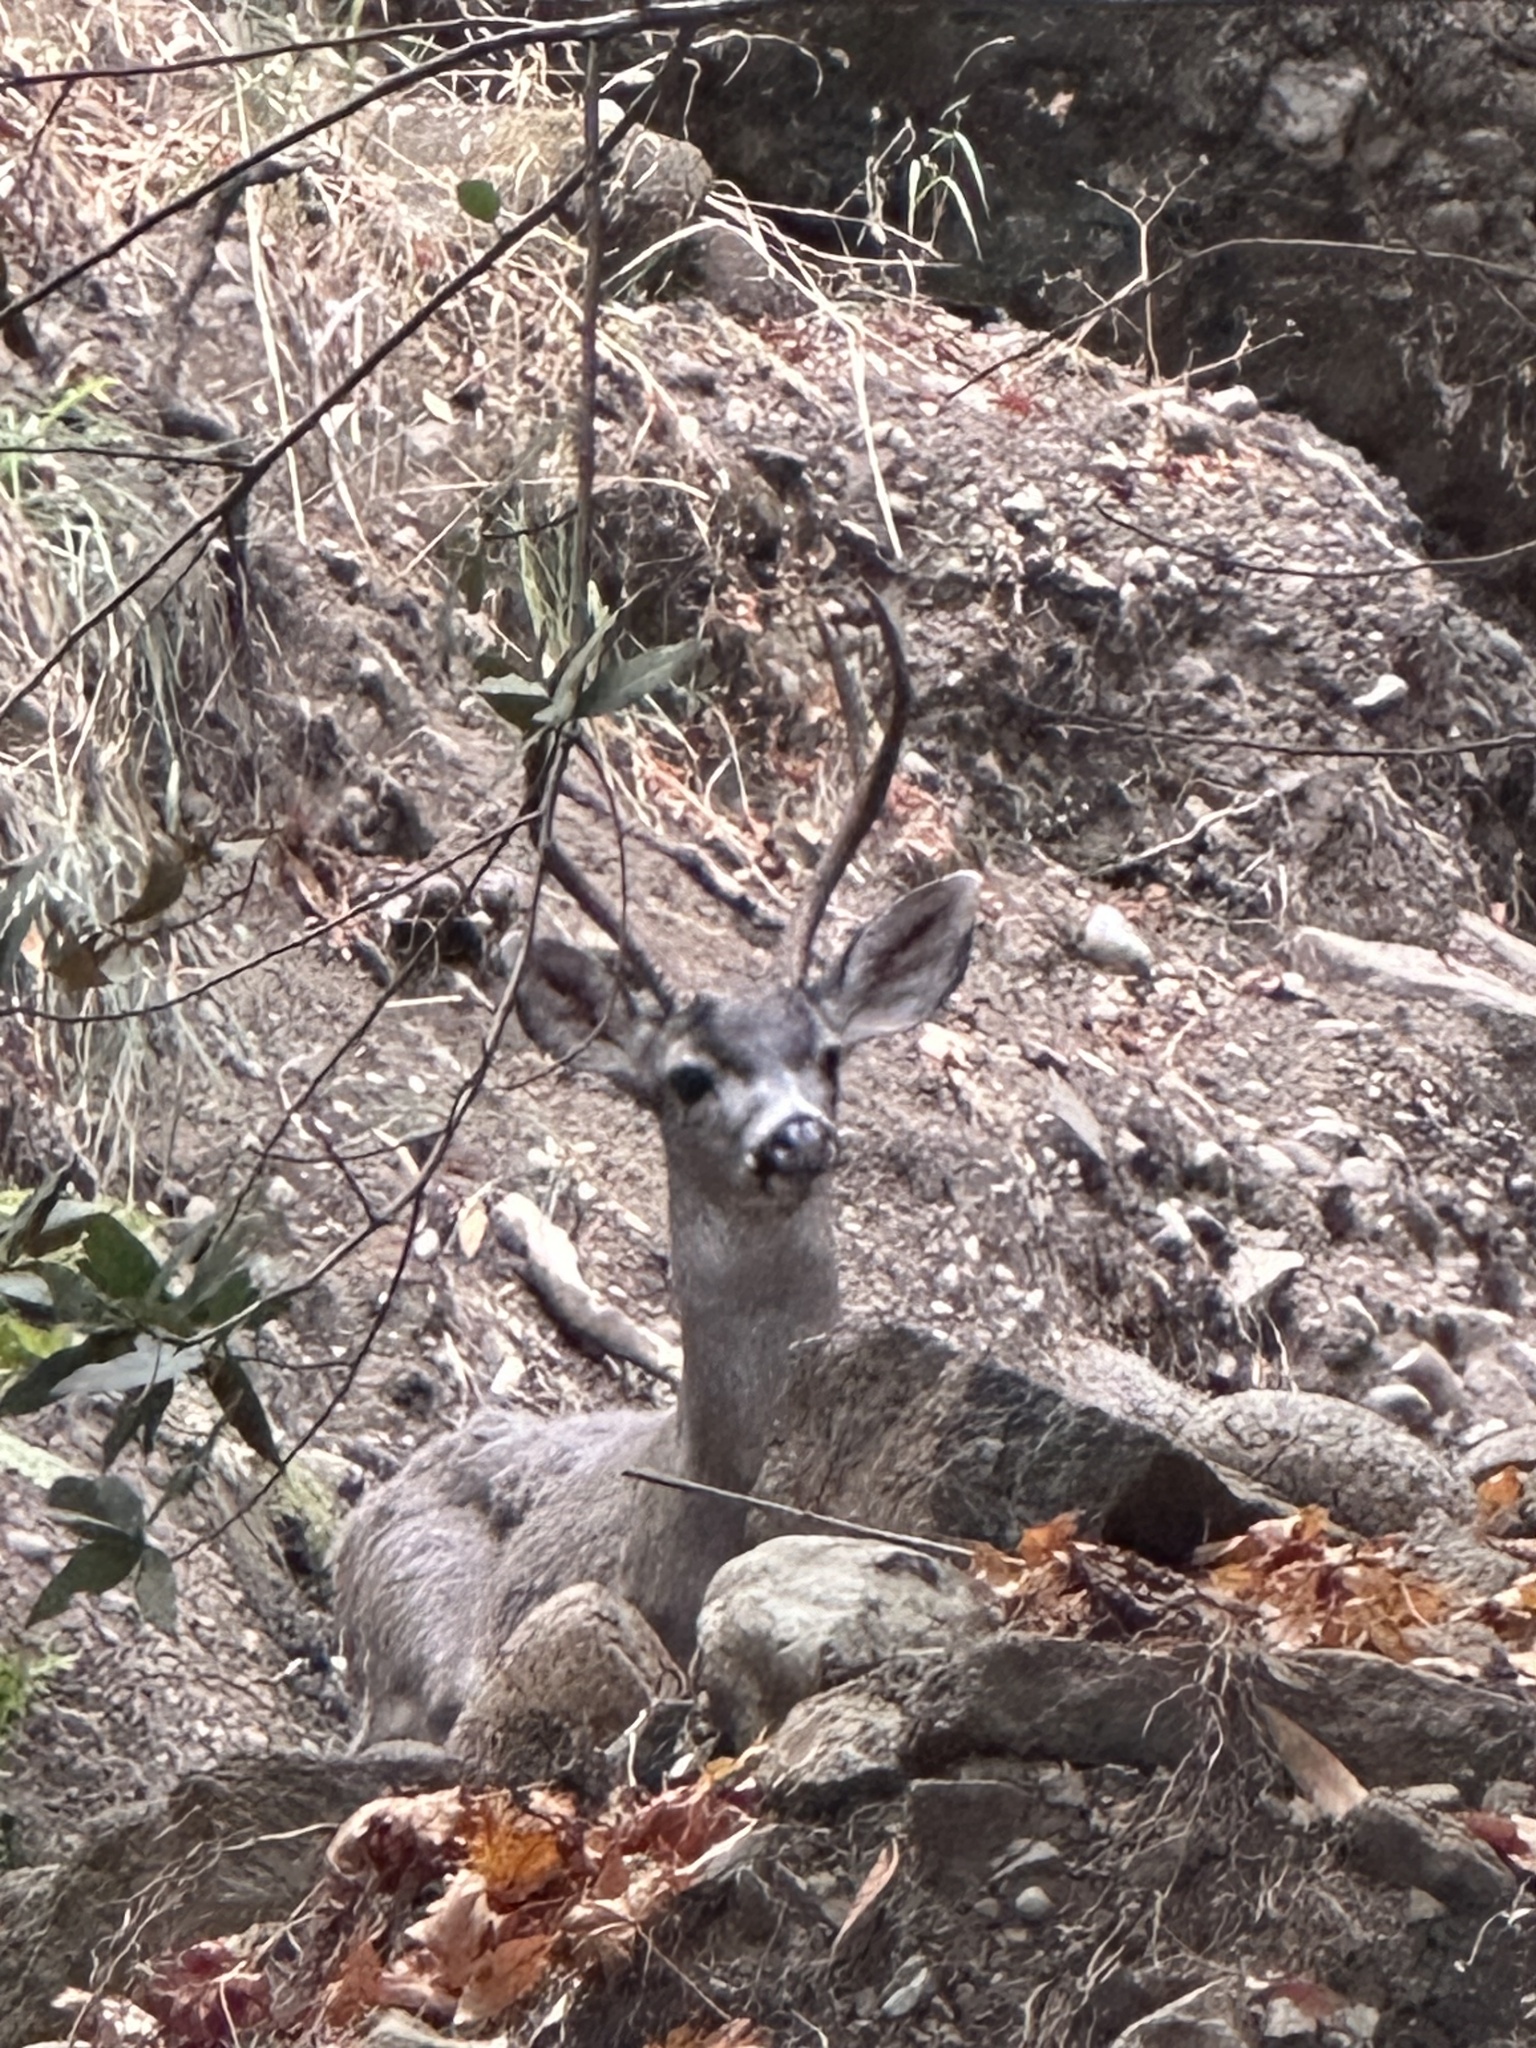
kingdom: Animalia
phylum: Chordata
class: Mammalia
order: Artiodactyla
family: Cervidae
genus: Odocoileus
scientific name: Odocoileus hemionus
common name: Mule deer
